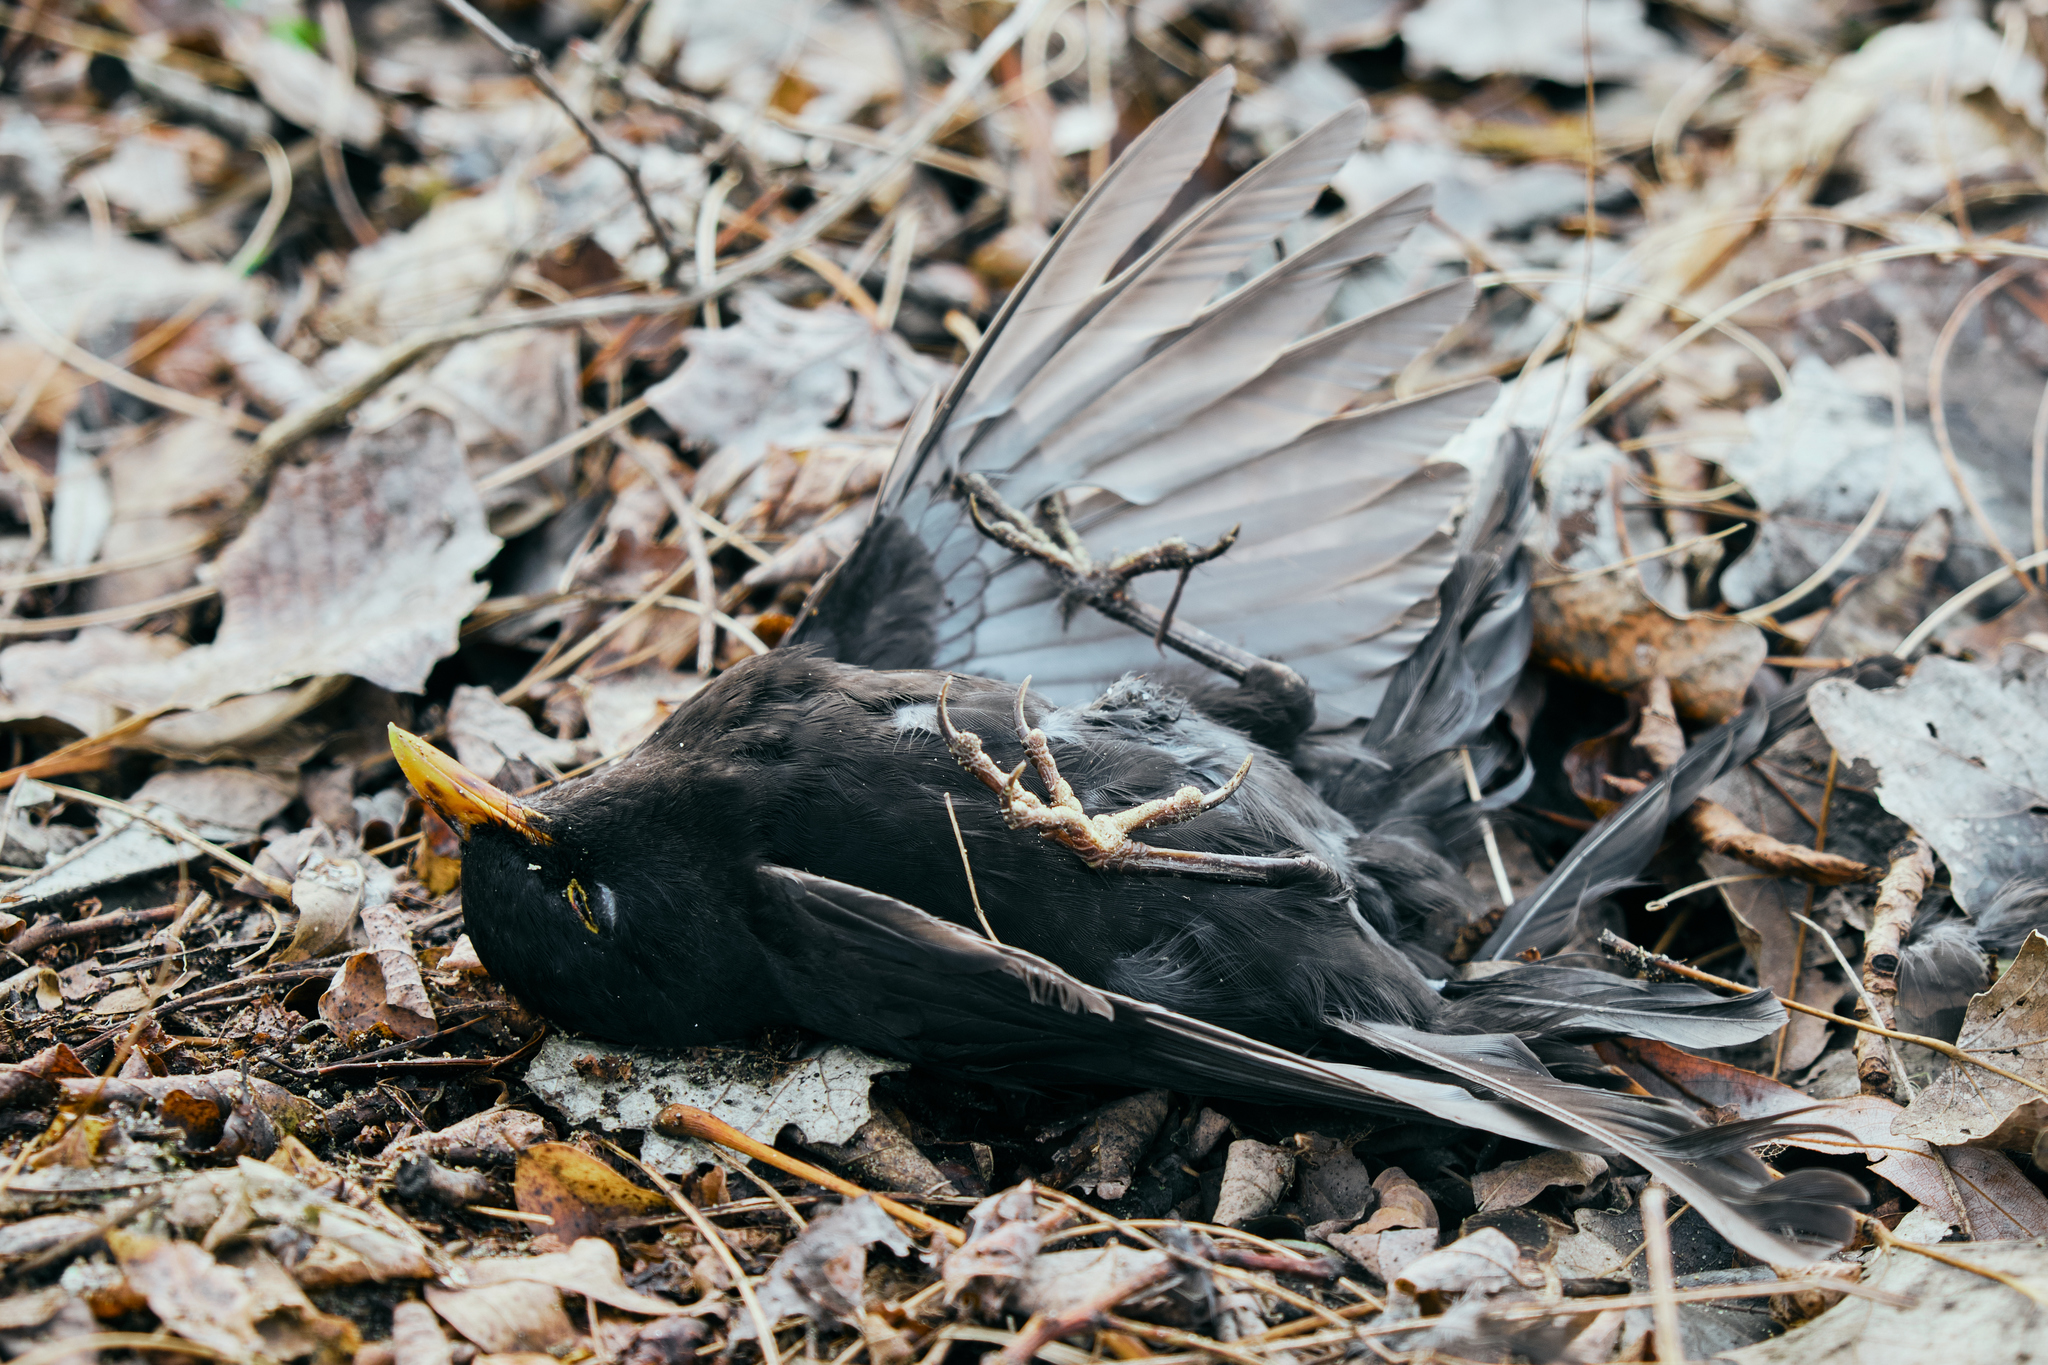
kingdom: Animalia
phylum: Chordata
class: Aves
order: Passeriformes
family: Turdidae
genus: Turdus
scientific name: Turdus merula
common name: Common blackbird
